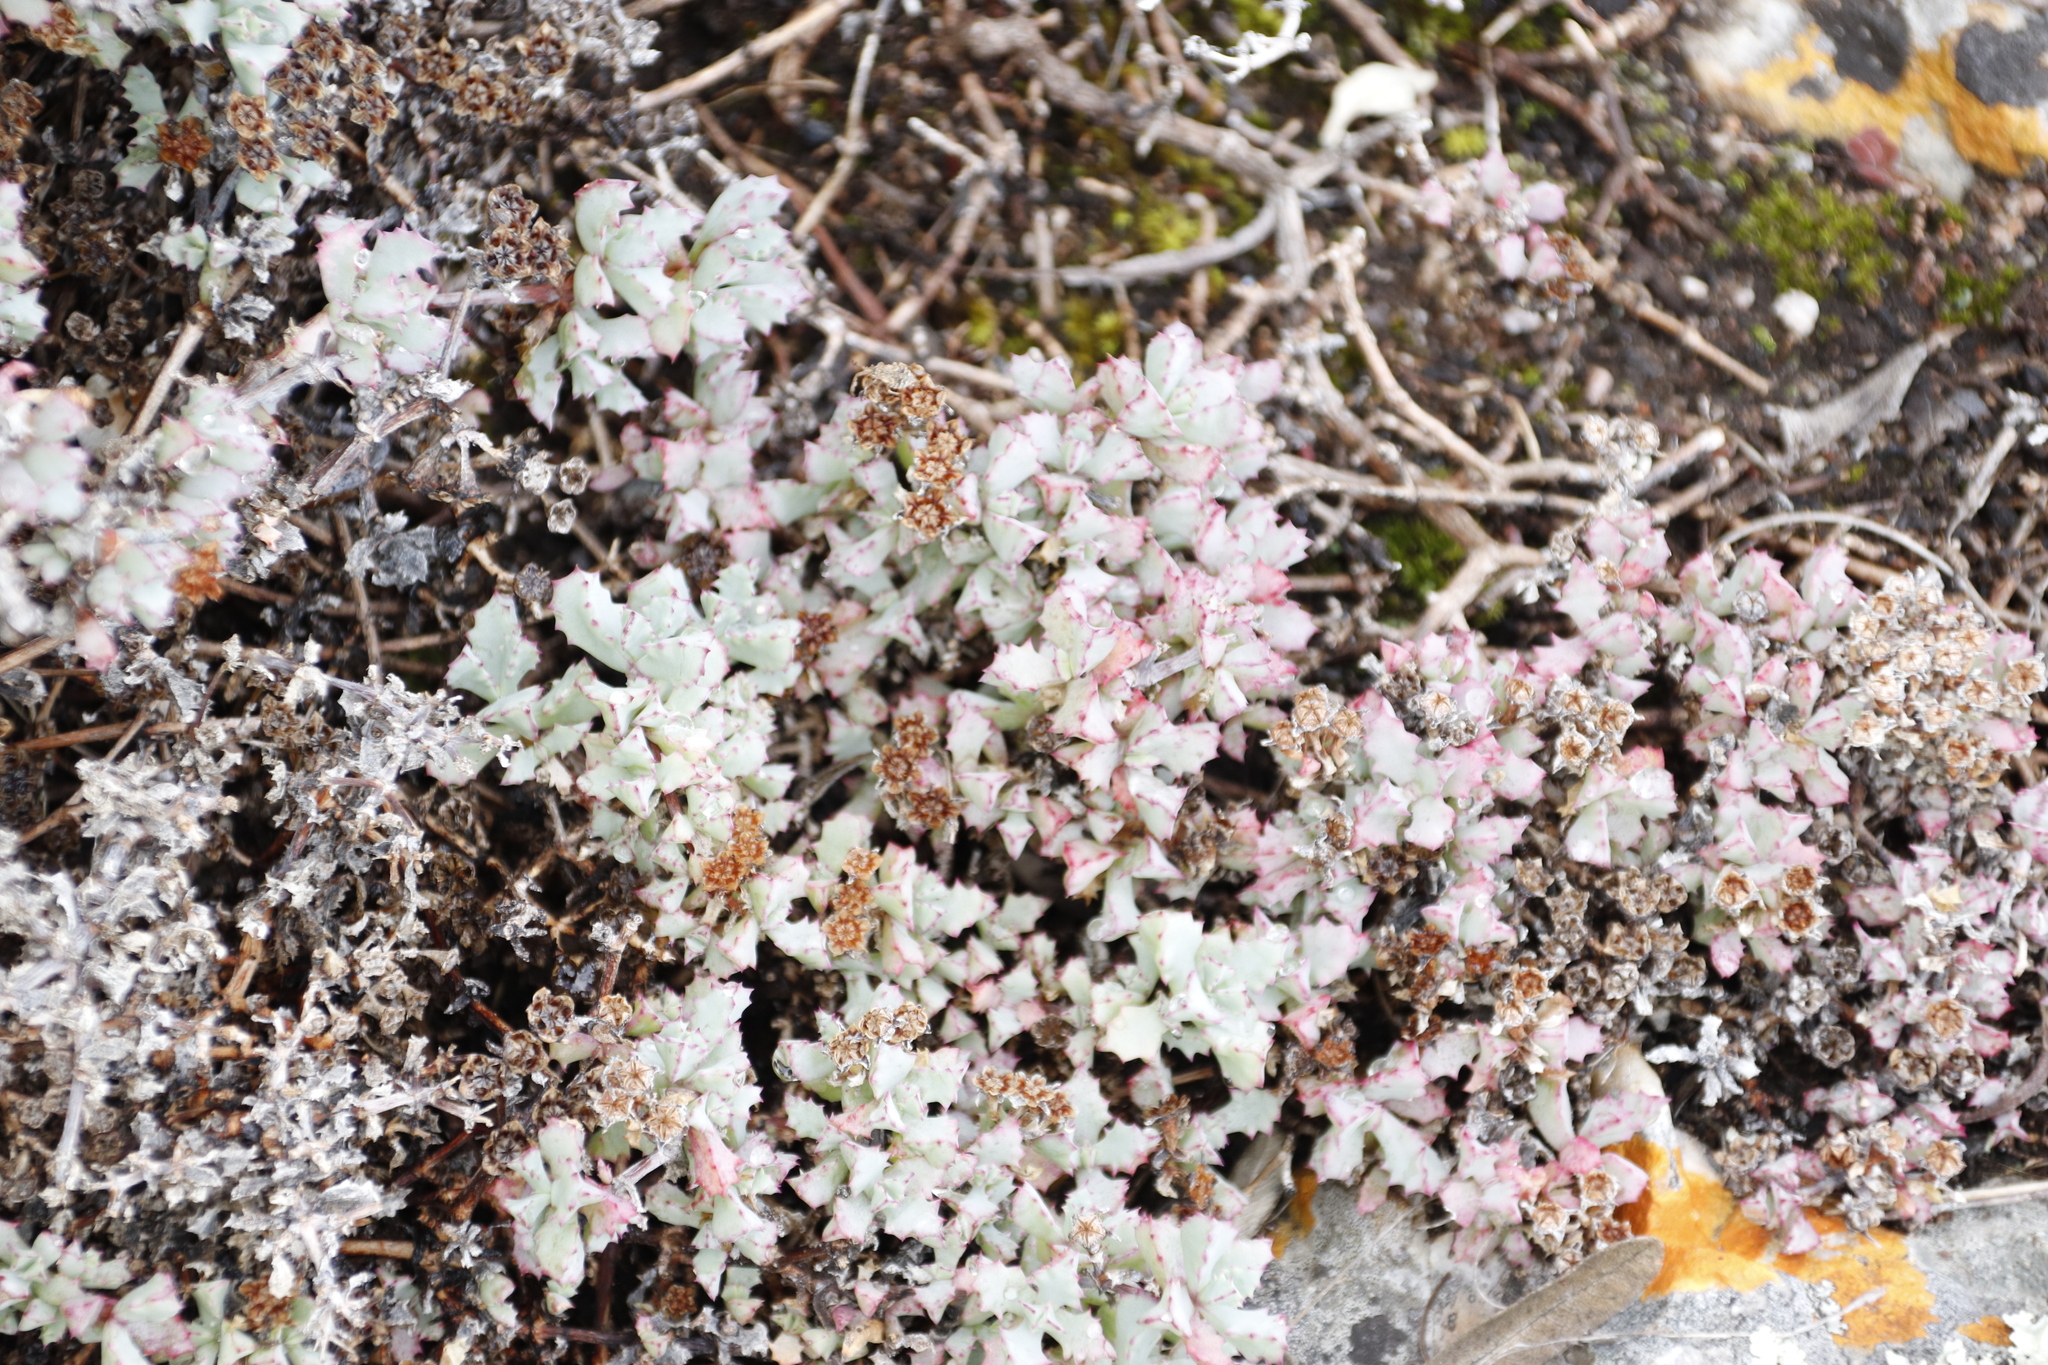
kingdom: Plantae
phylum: Tracheophyta
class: Magnoliopsida
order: Caryophyllales
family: Aizoaceae
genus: Oscularia
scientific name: Oscularia deltoides
